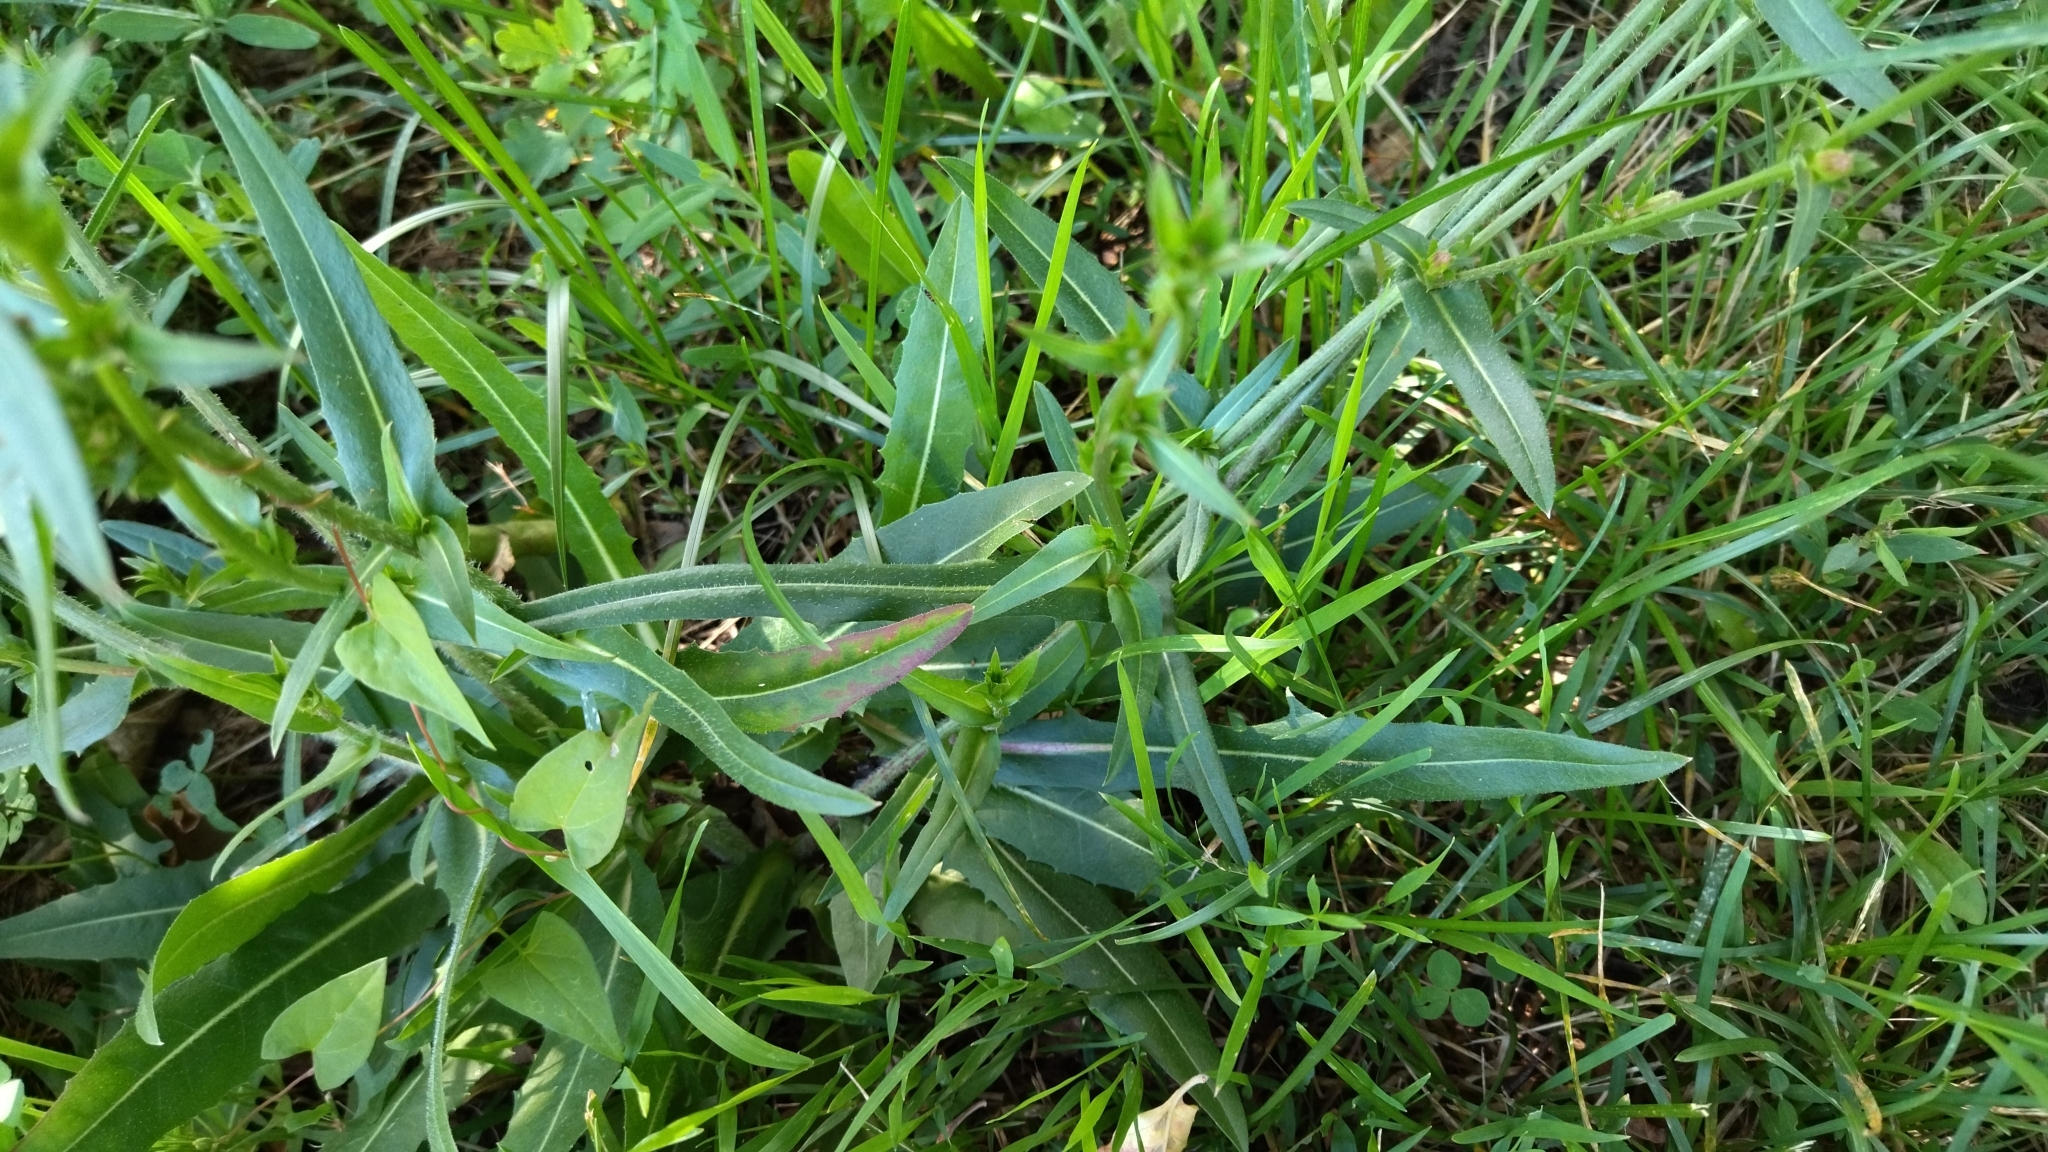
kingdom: Plantae
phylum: Tracheophyta
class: Magnoliopsida
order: Asterales
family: Asteraceae
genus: Cichorium
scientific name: Cichorium intybus
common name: Chicory
